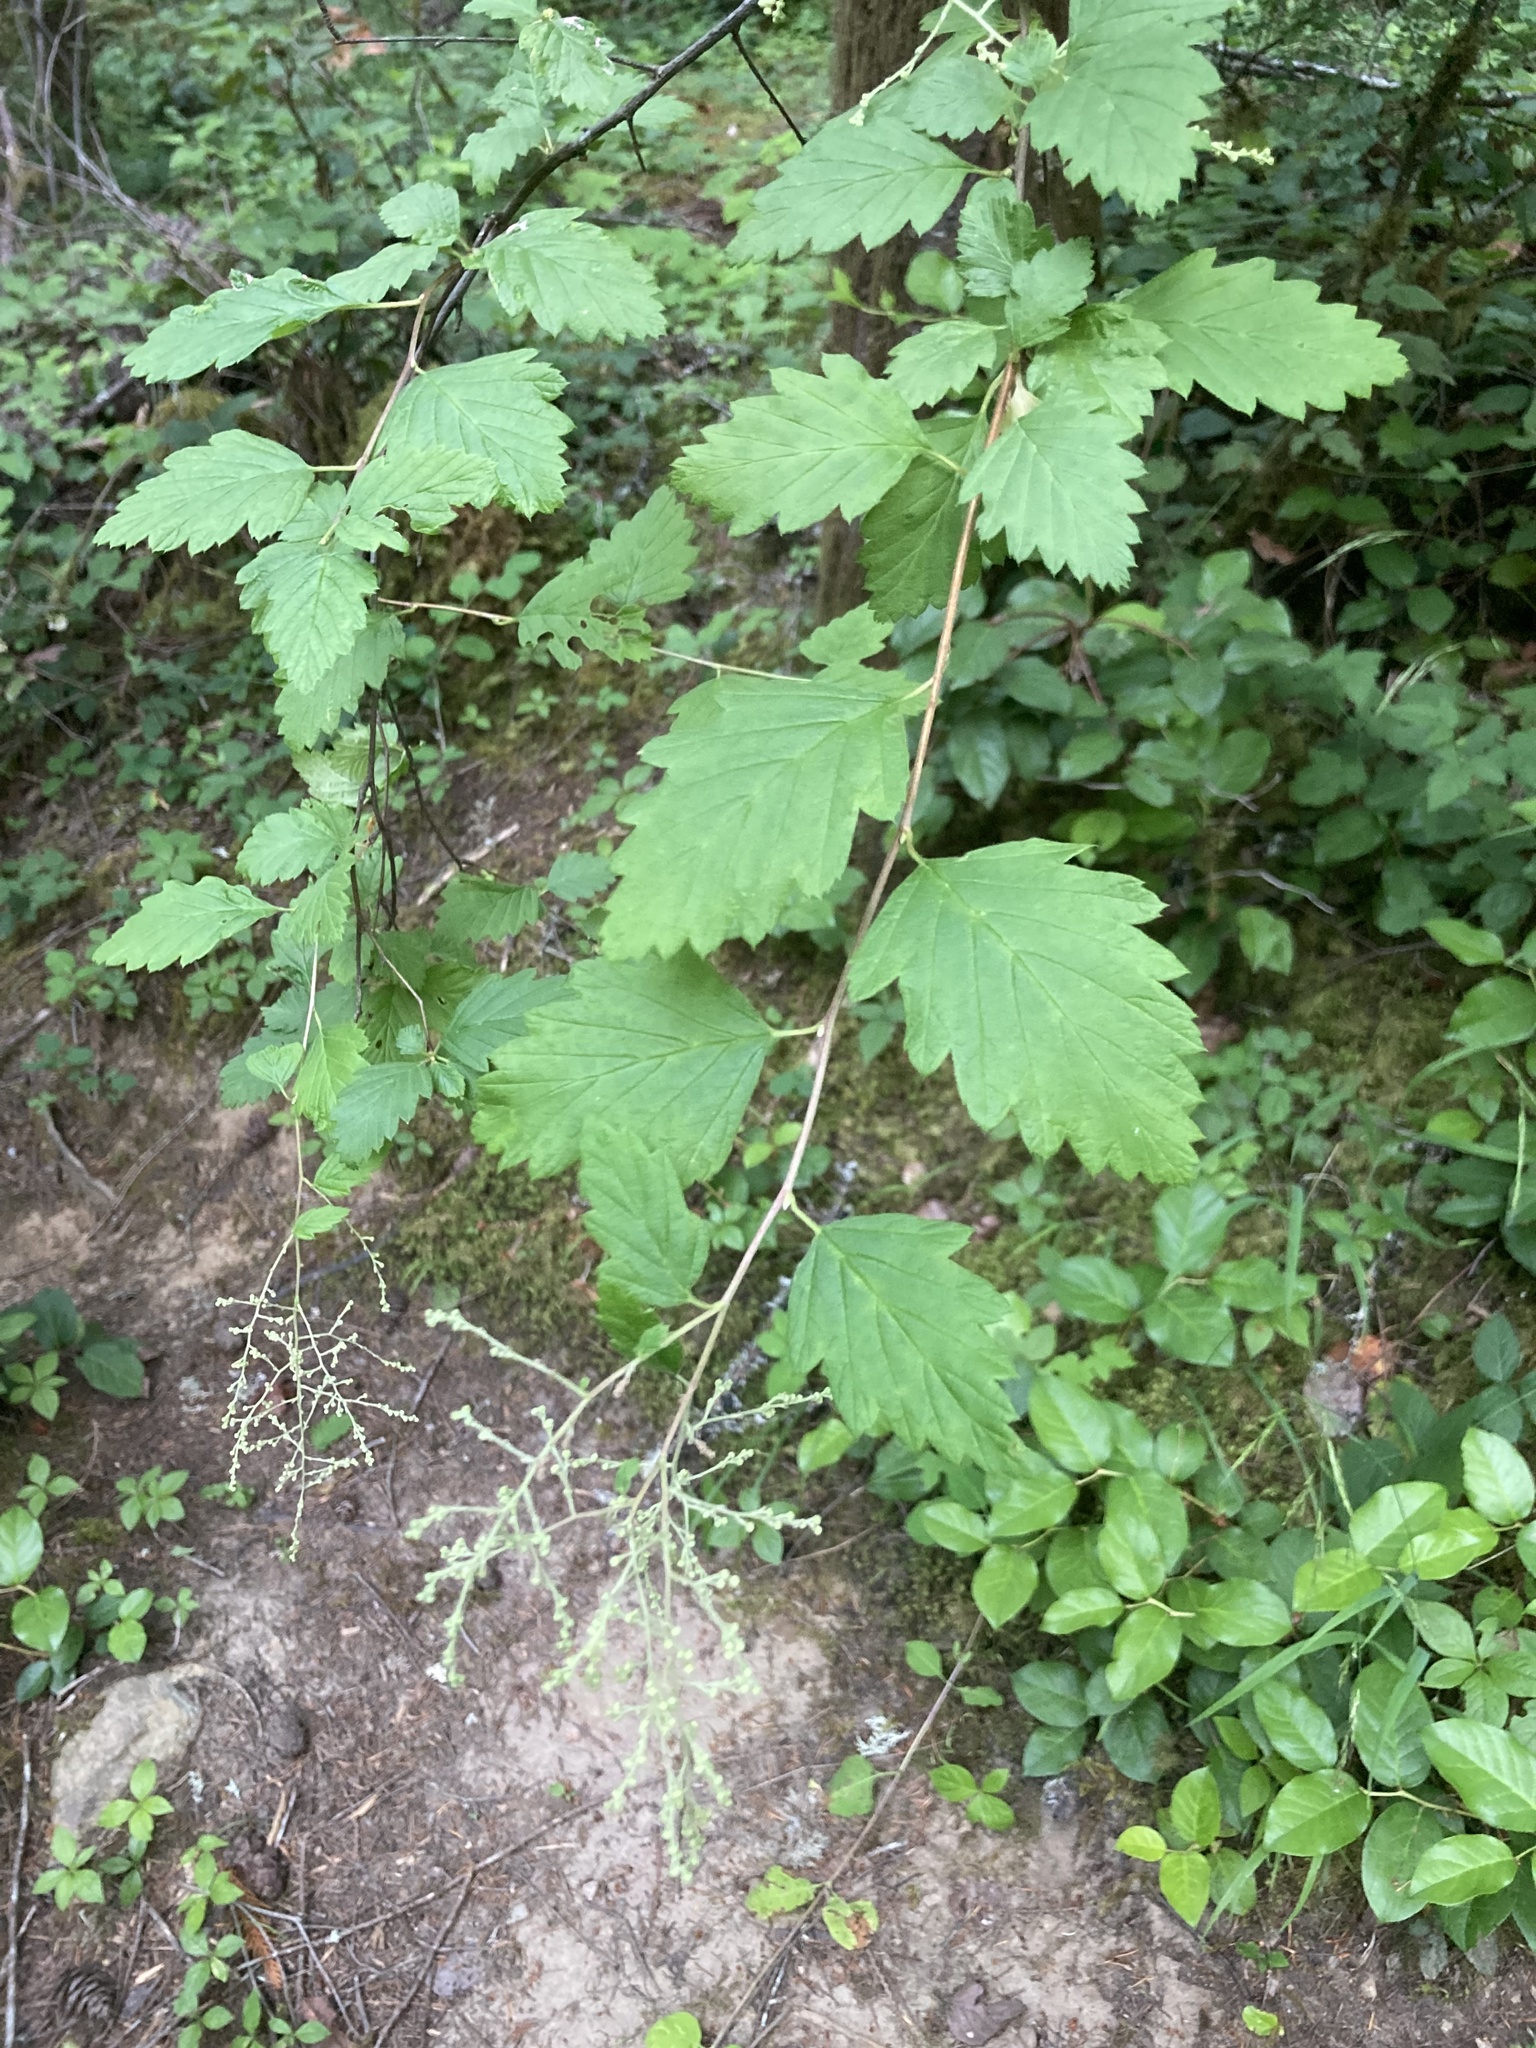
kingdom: Plantae
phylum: Tracheophyta
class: Magnoliopsida
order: Rosales
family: Rosaceae
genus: Holodiscus
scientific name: Holodiscus discolor
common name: Oceanspray
